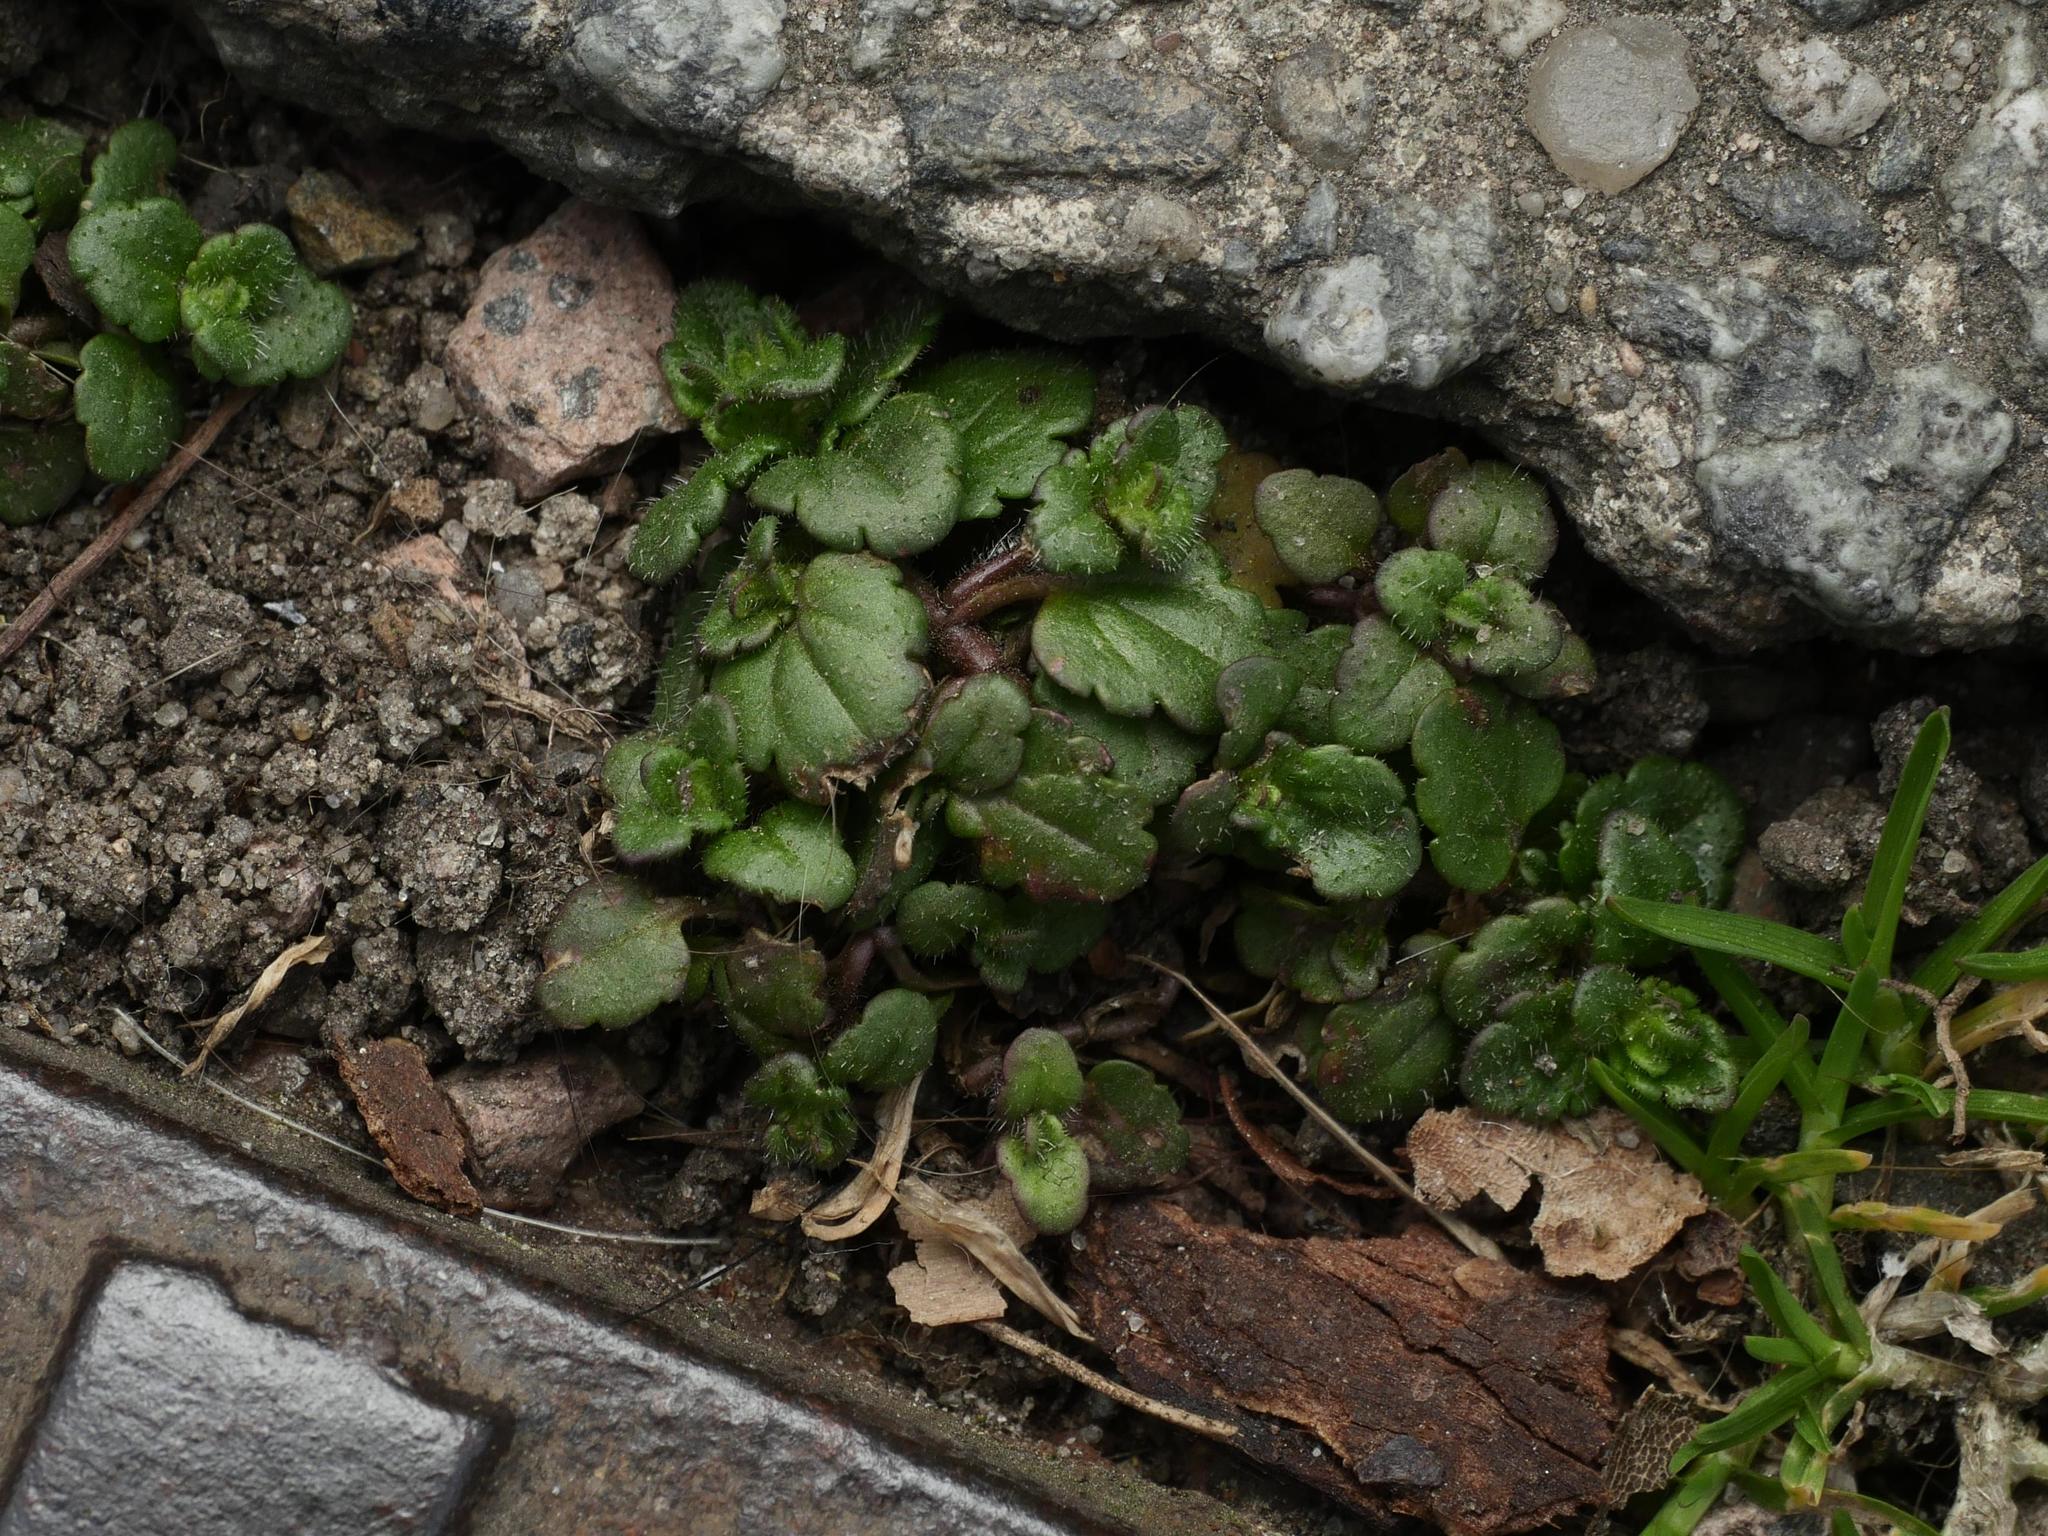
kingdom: Plantae
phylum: Tracheophyta
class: Magnoliopsida
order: Lamiales
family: Plantaginaceae
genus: Veronica
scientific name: Veronica arvensis
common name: Corn speedwell
